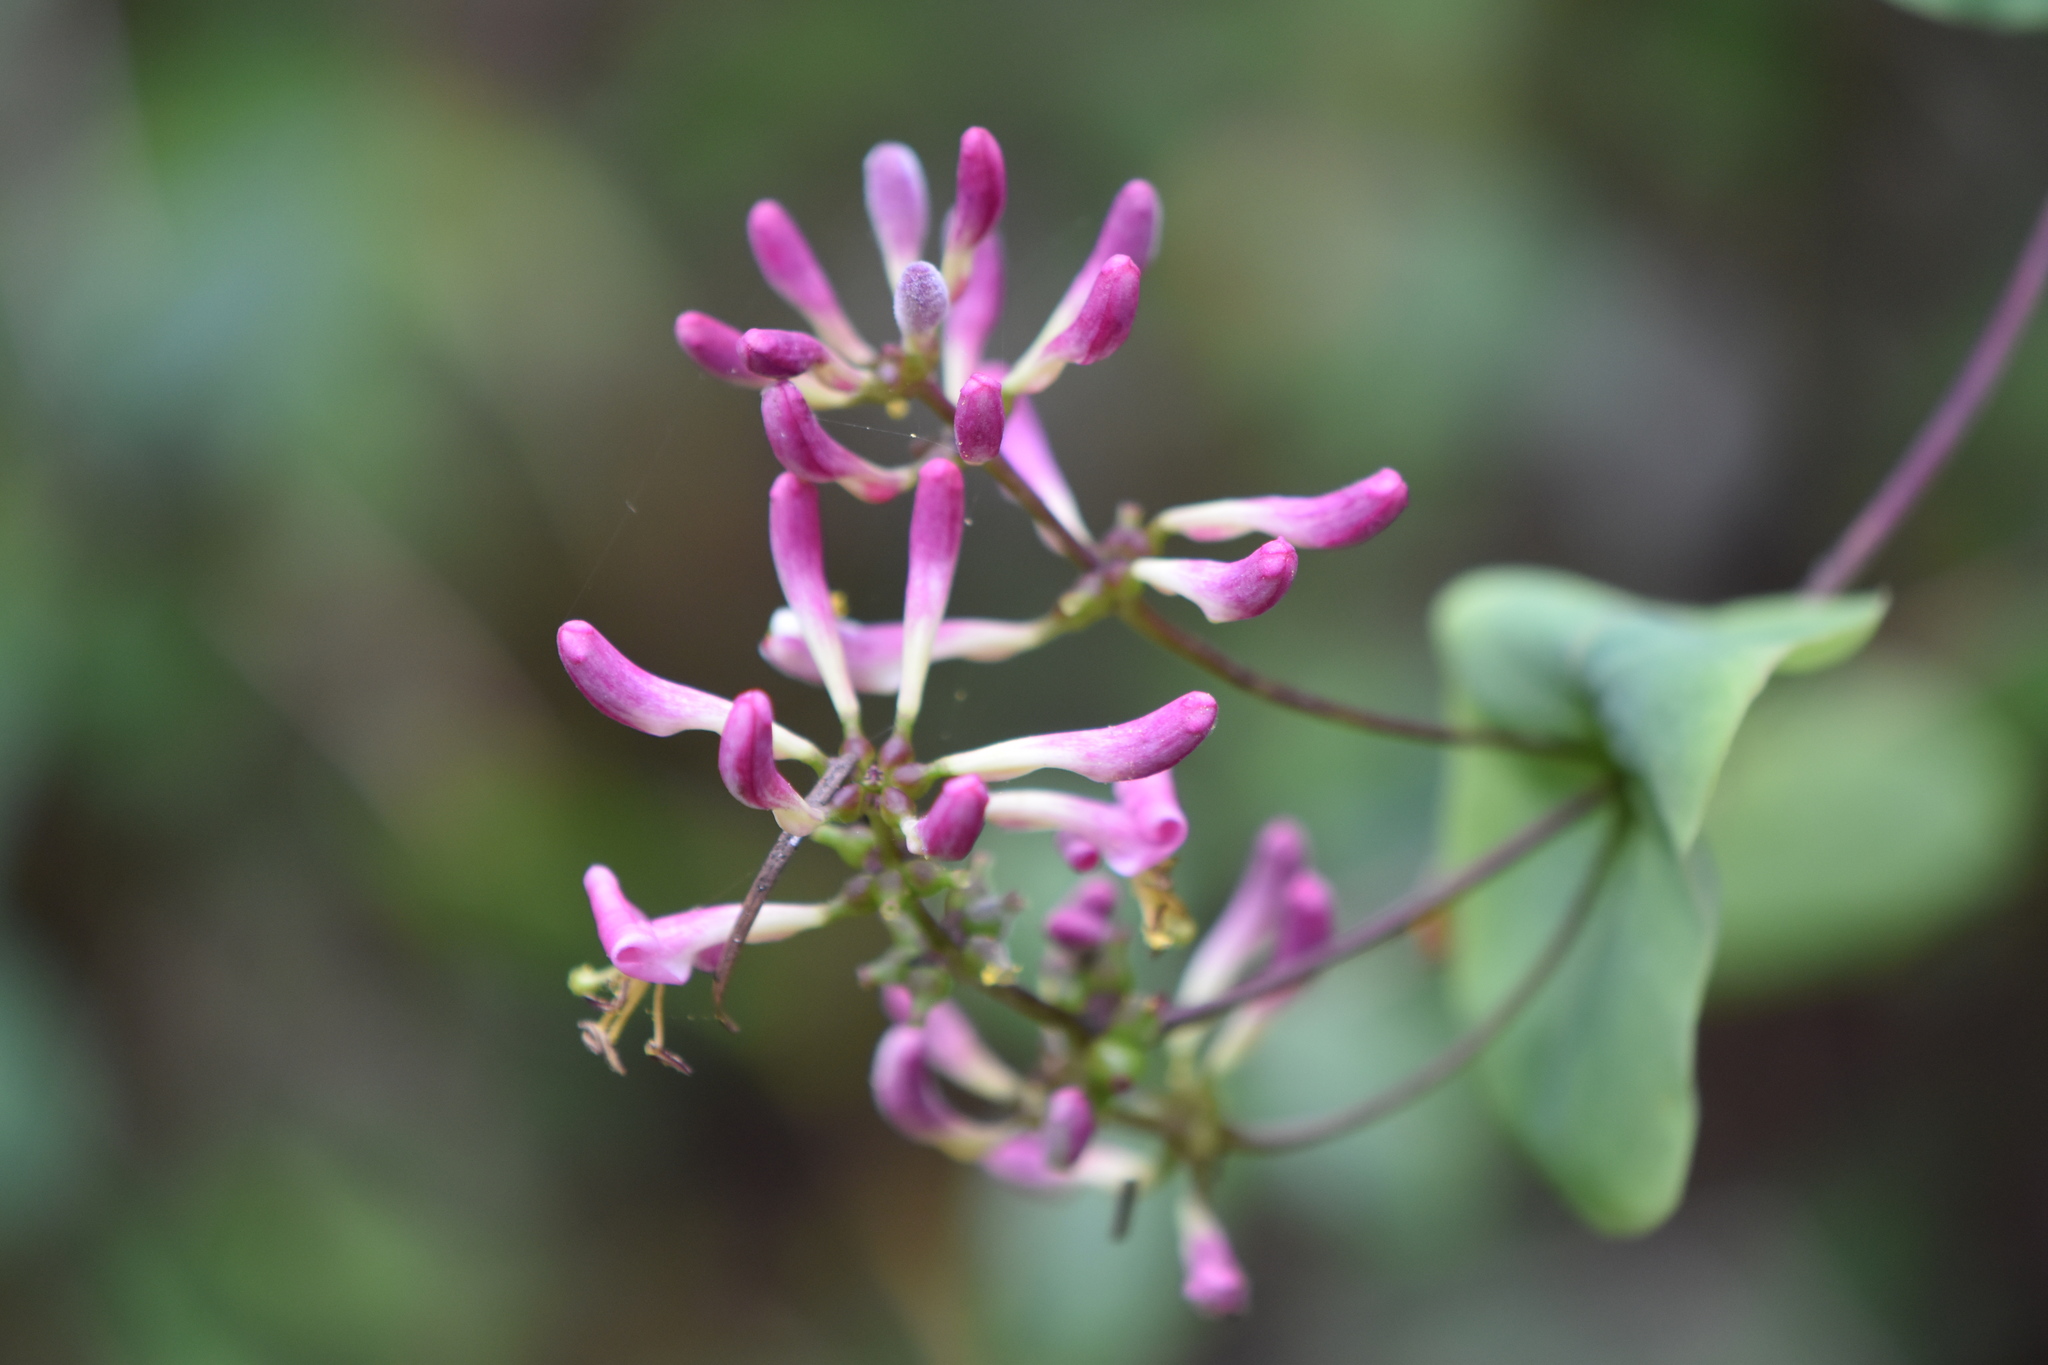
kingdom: Plantae
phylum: Tracheophyta
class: Magnoliopsida
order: Dipsacales
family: Caprifoliaceae
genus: Lonicera
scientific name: Lonicera hispidula
